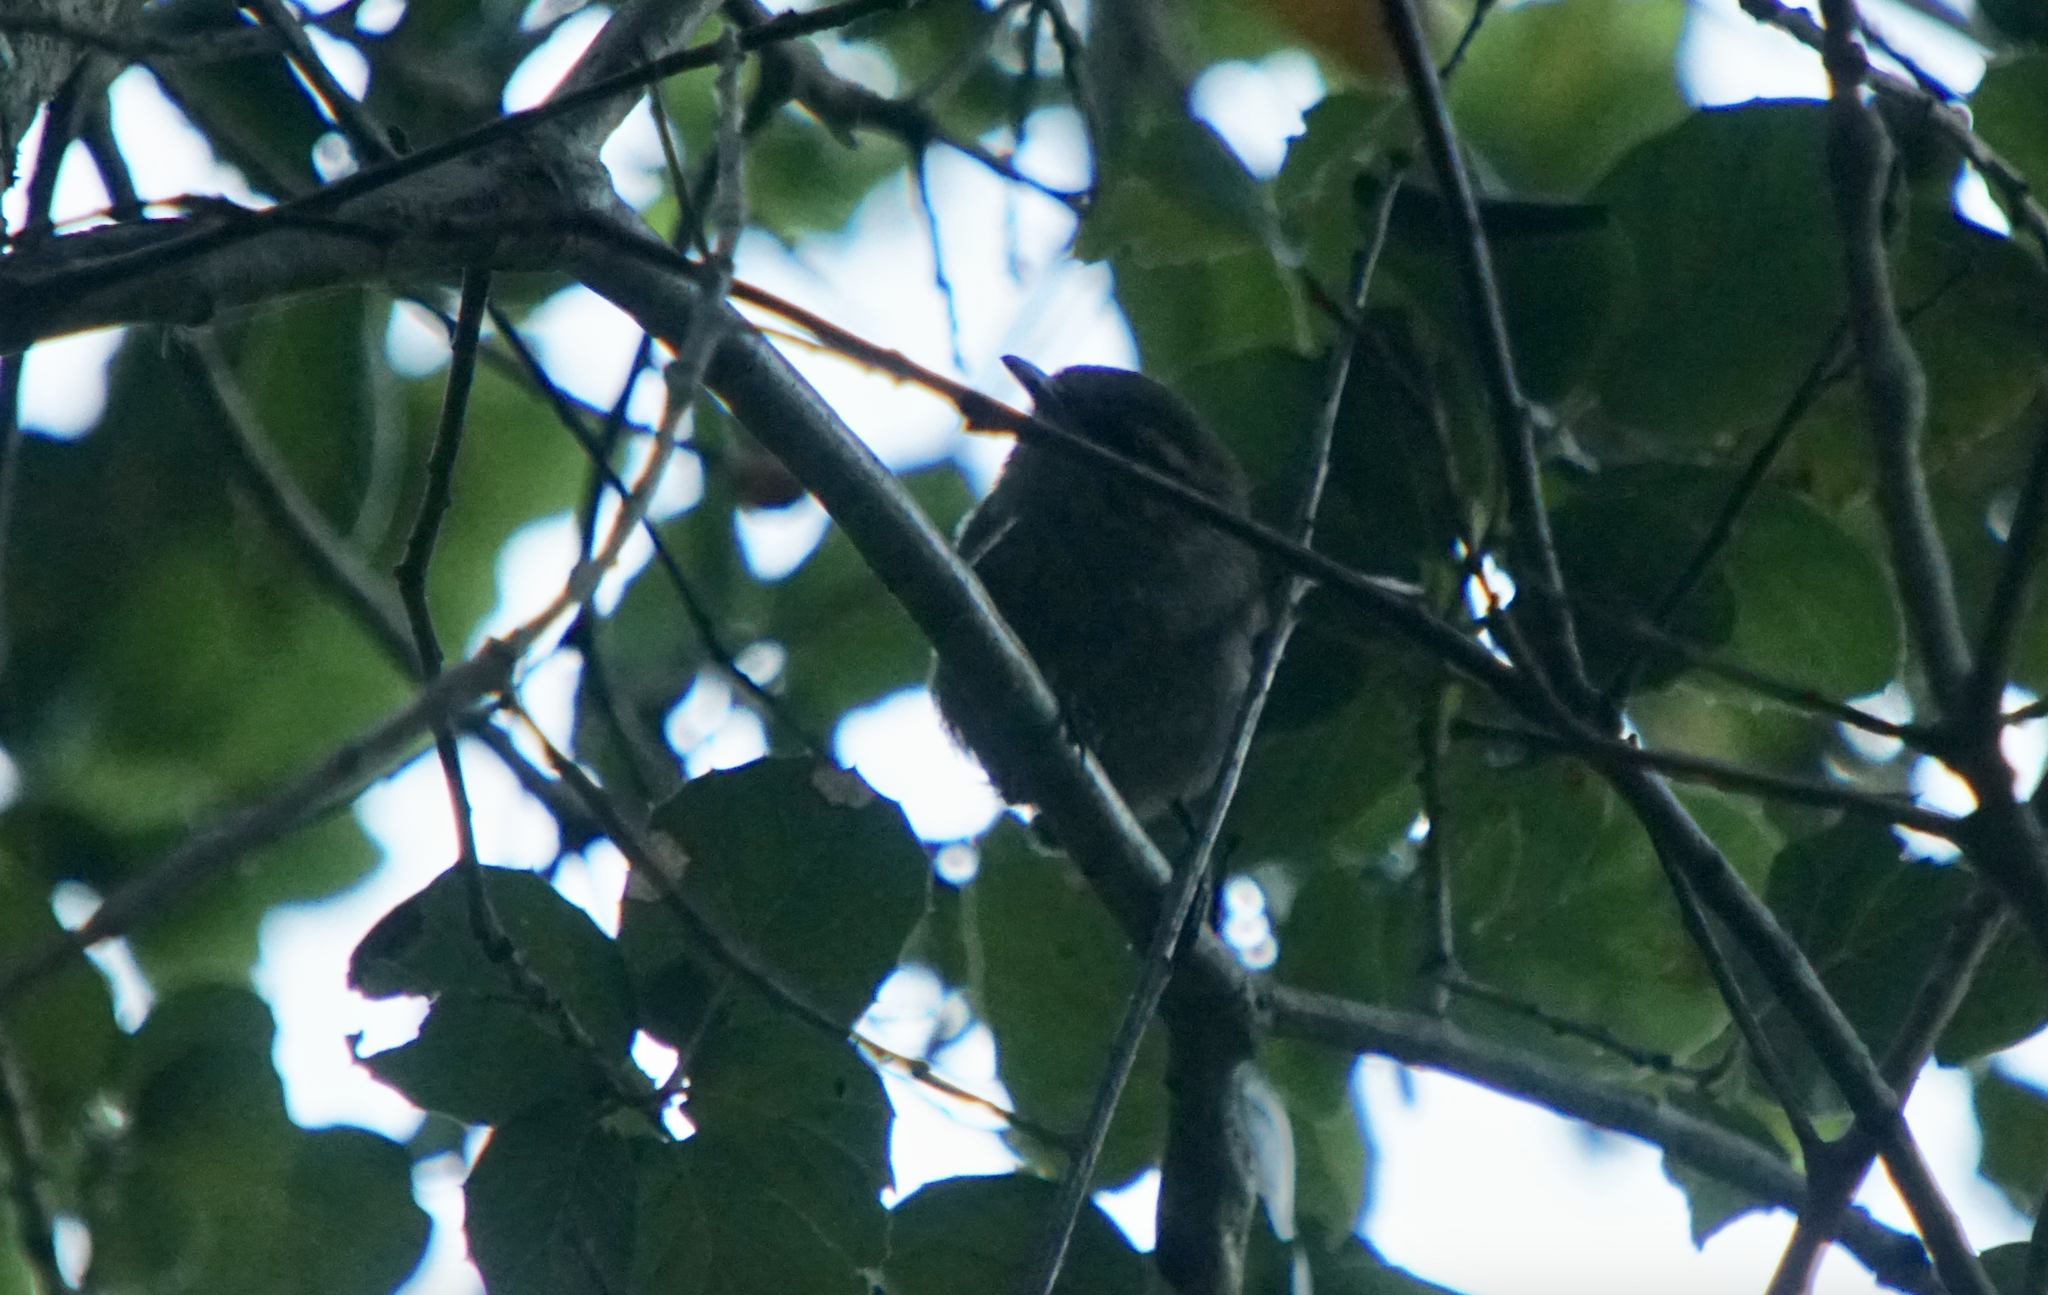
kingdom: Animalia
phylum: Chordata
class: Aves
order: Passeriformes
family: Troglodytidae
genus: Thryomanes
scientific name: Thryomanes bewickii
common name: Bewick's wren
